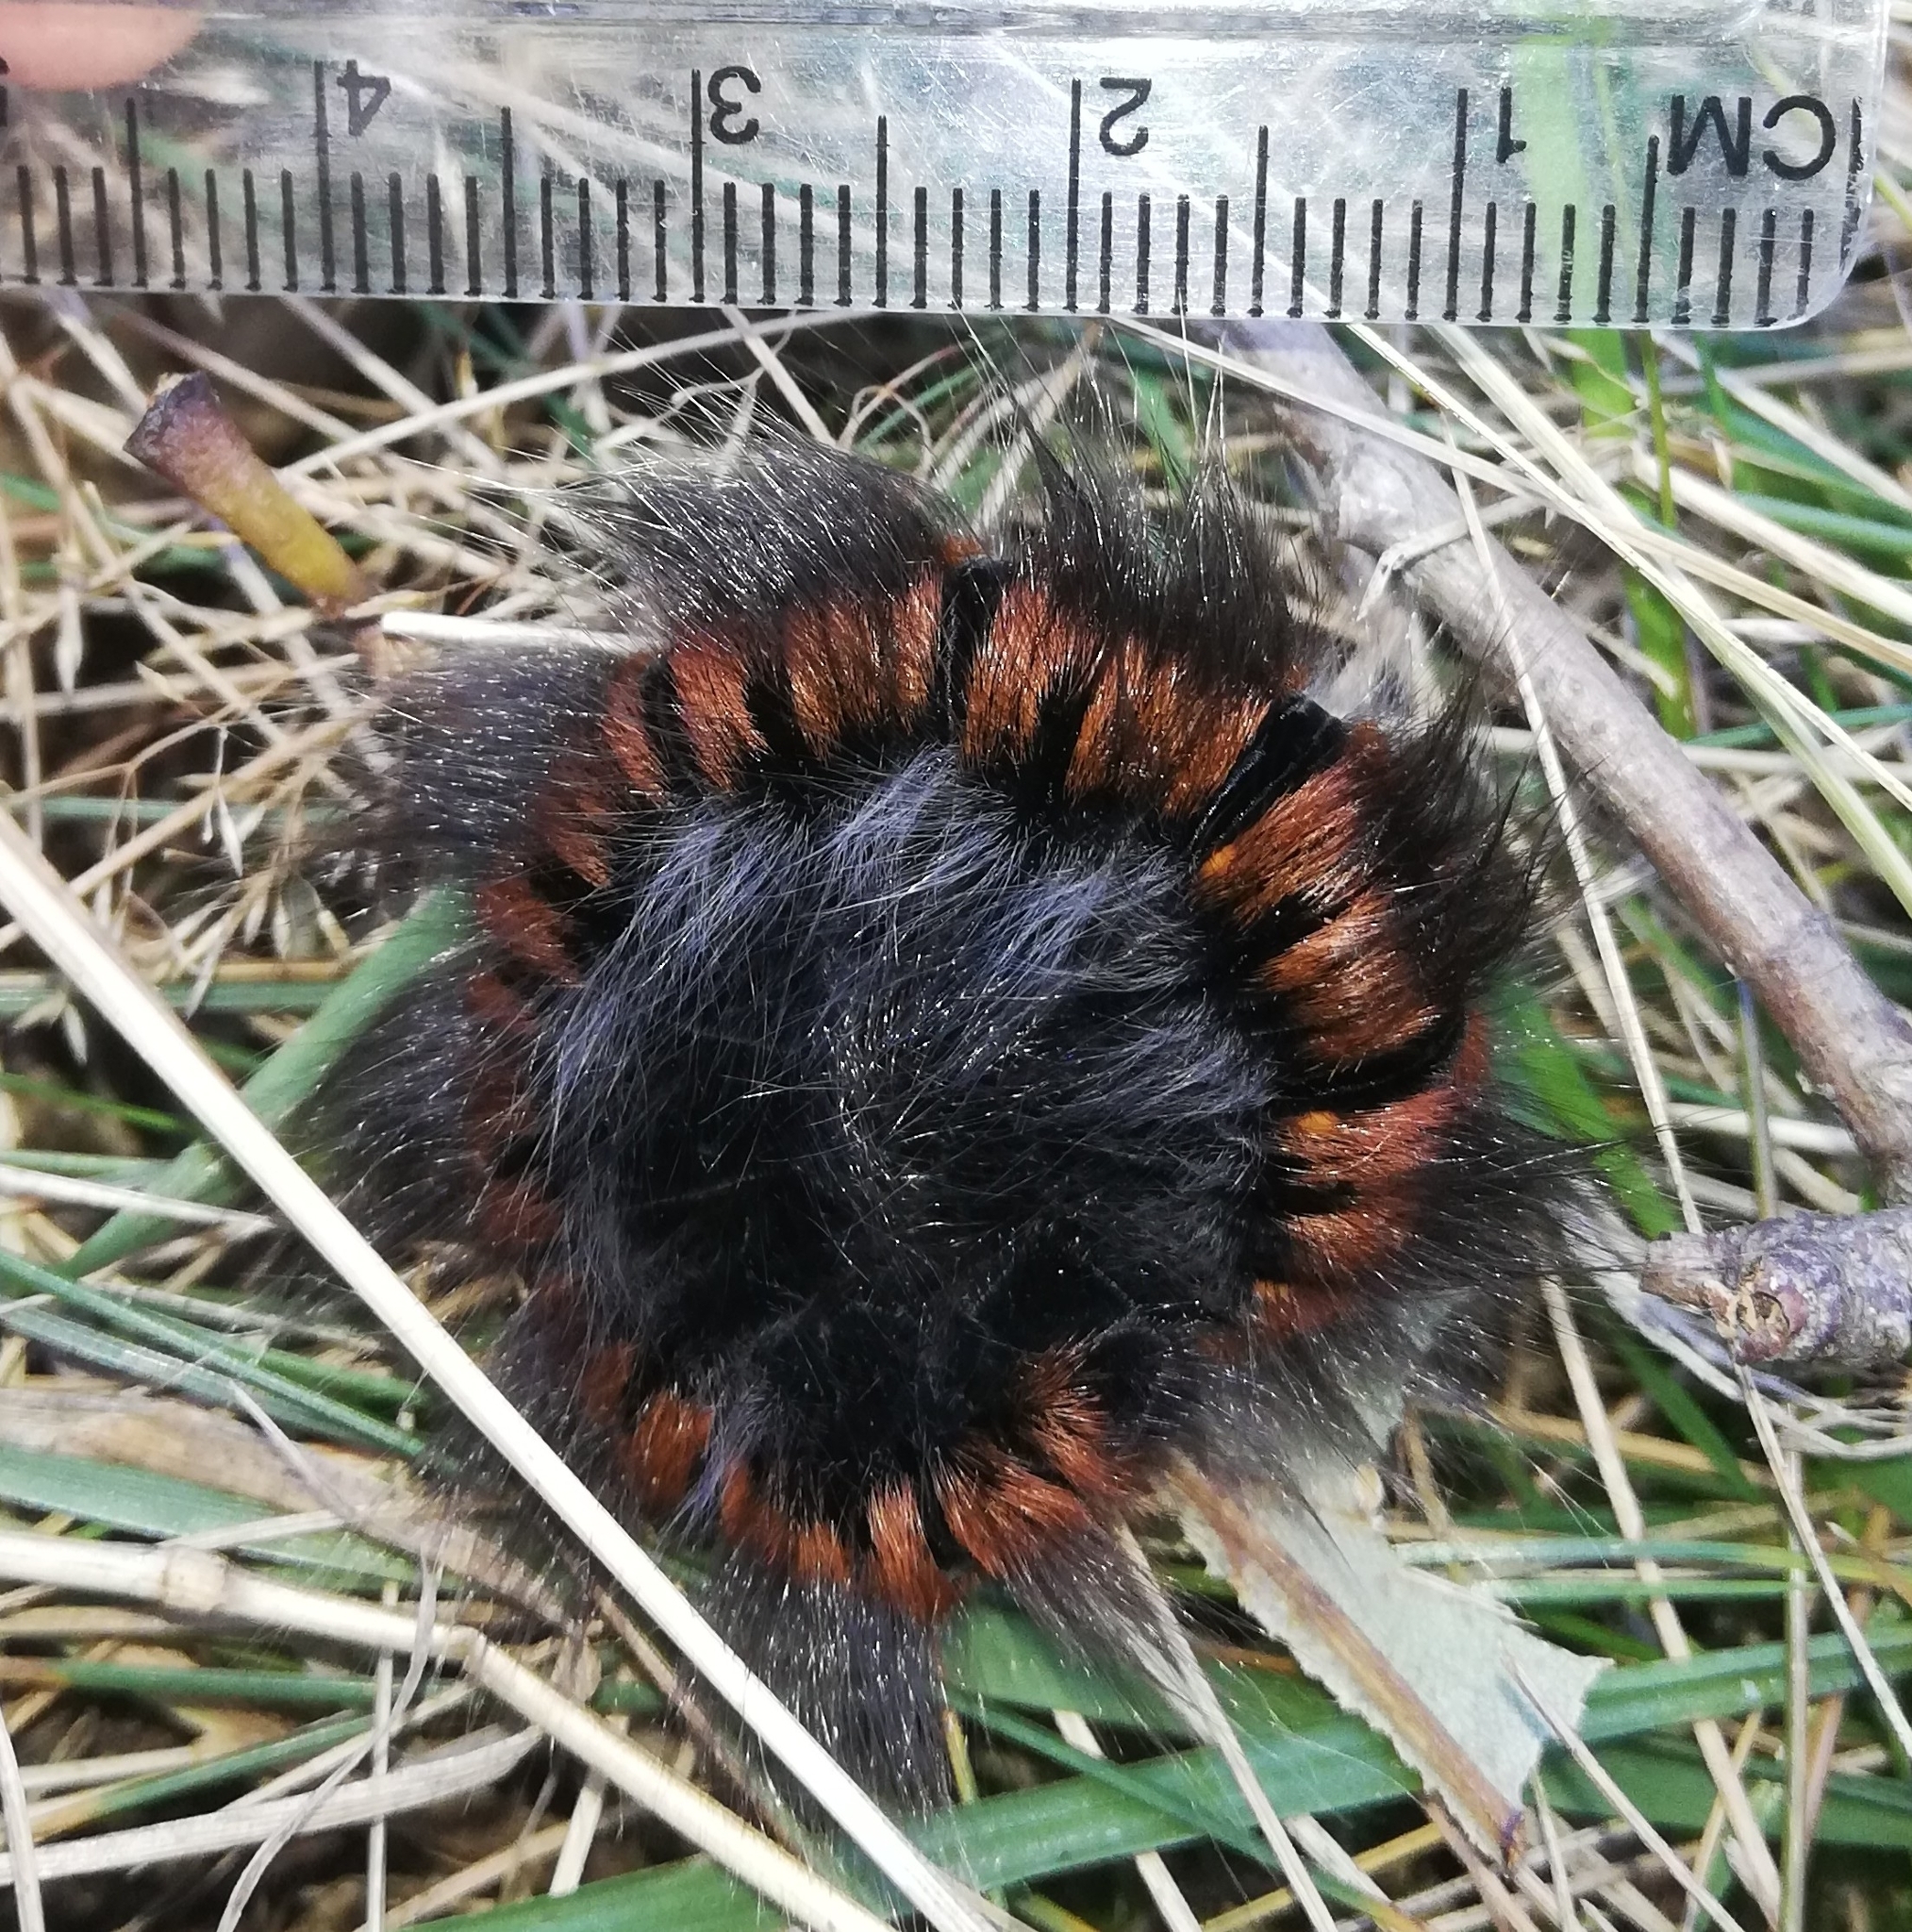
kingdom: Animalia
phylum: Arthropoda
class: Insecta
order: Lepidoptera
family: Lasiocampidae
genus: Macrothylacia
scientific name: Macrothylacia rubi
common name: Fox moth
